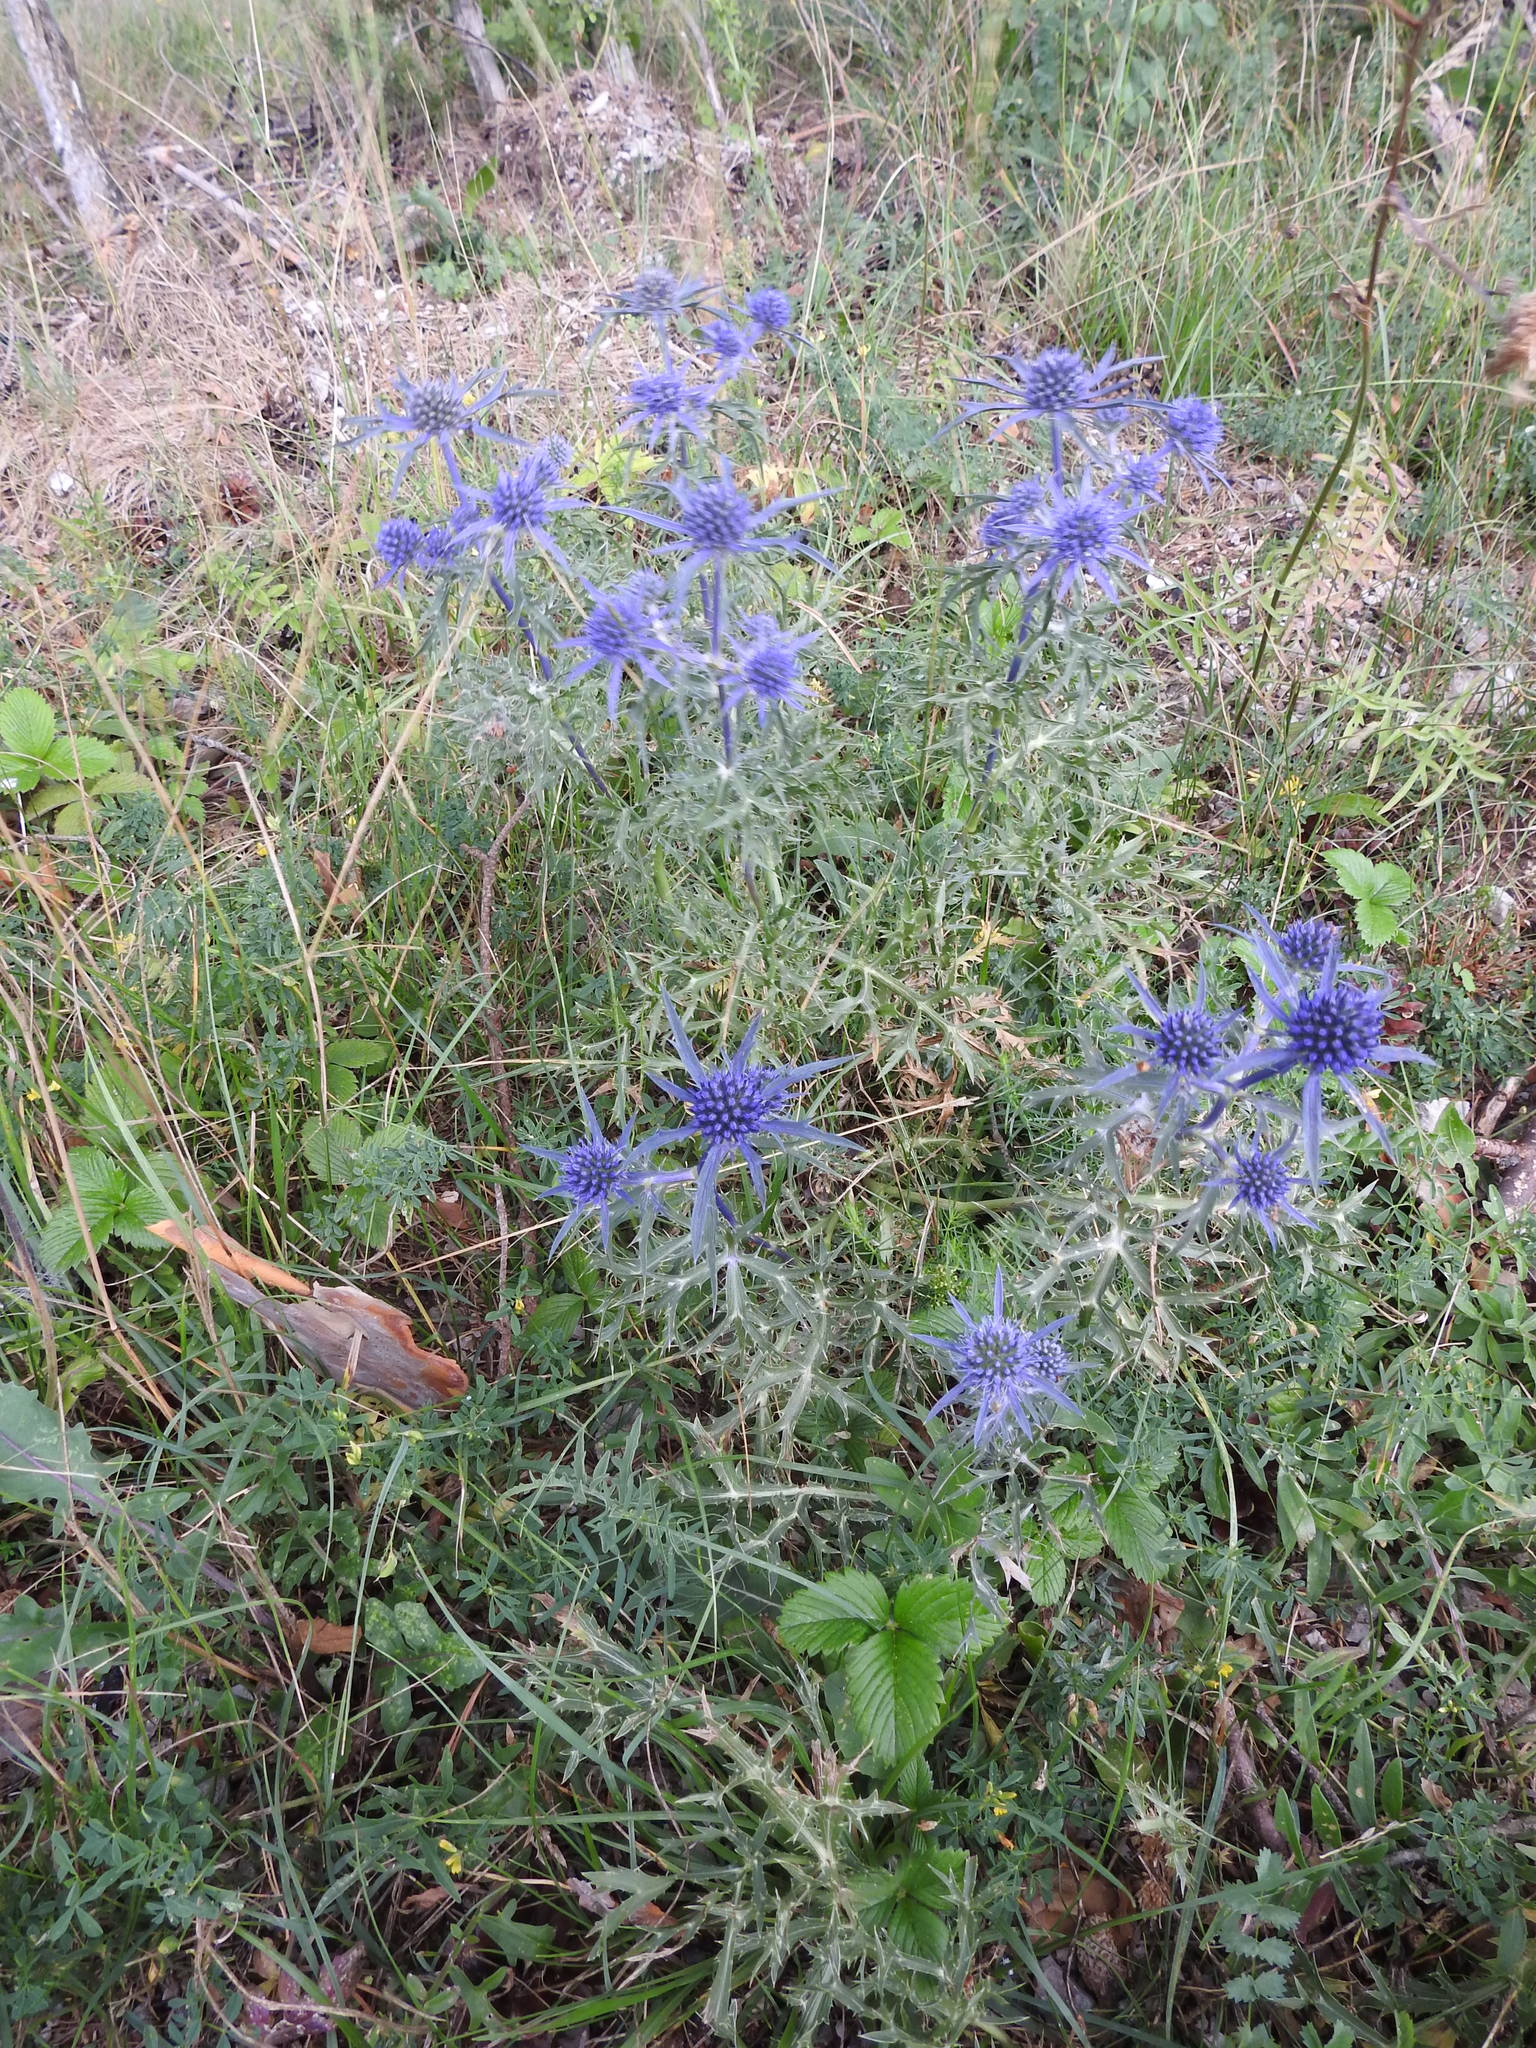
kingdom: Plantae
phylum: Tracheophyta
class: Magnoliopsida
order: Apiales
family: Apiaceae
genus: Eryngium
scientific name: Eryngium amethystinum
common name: Amethyst eryngo
